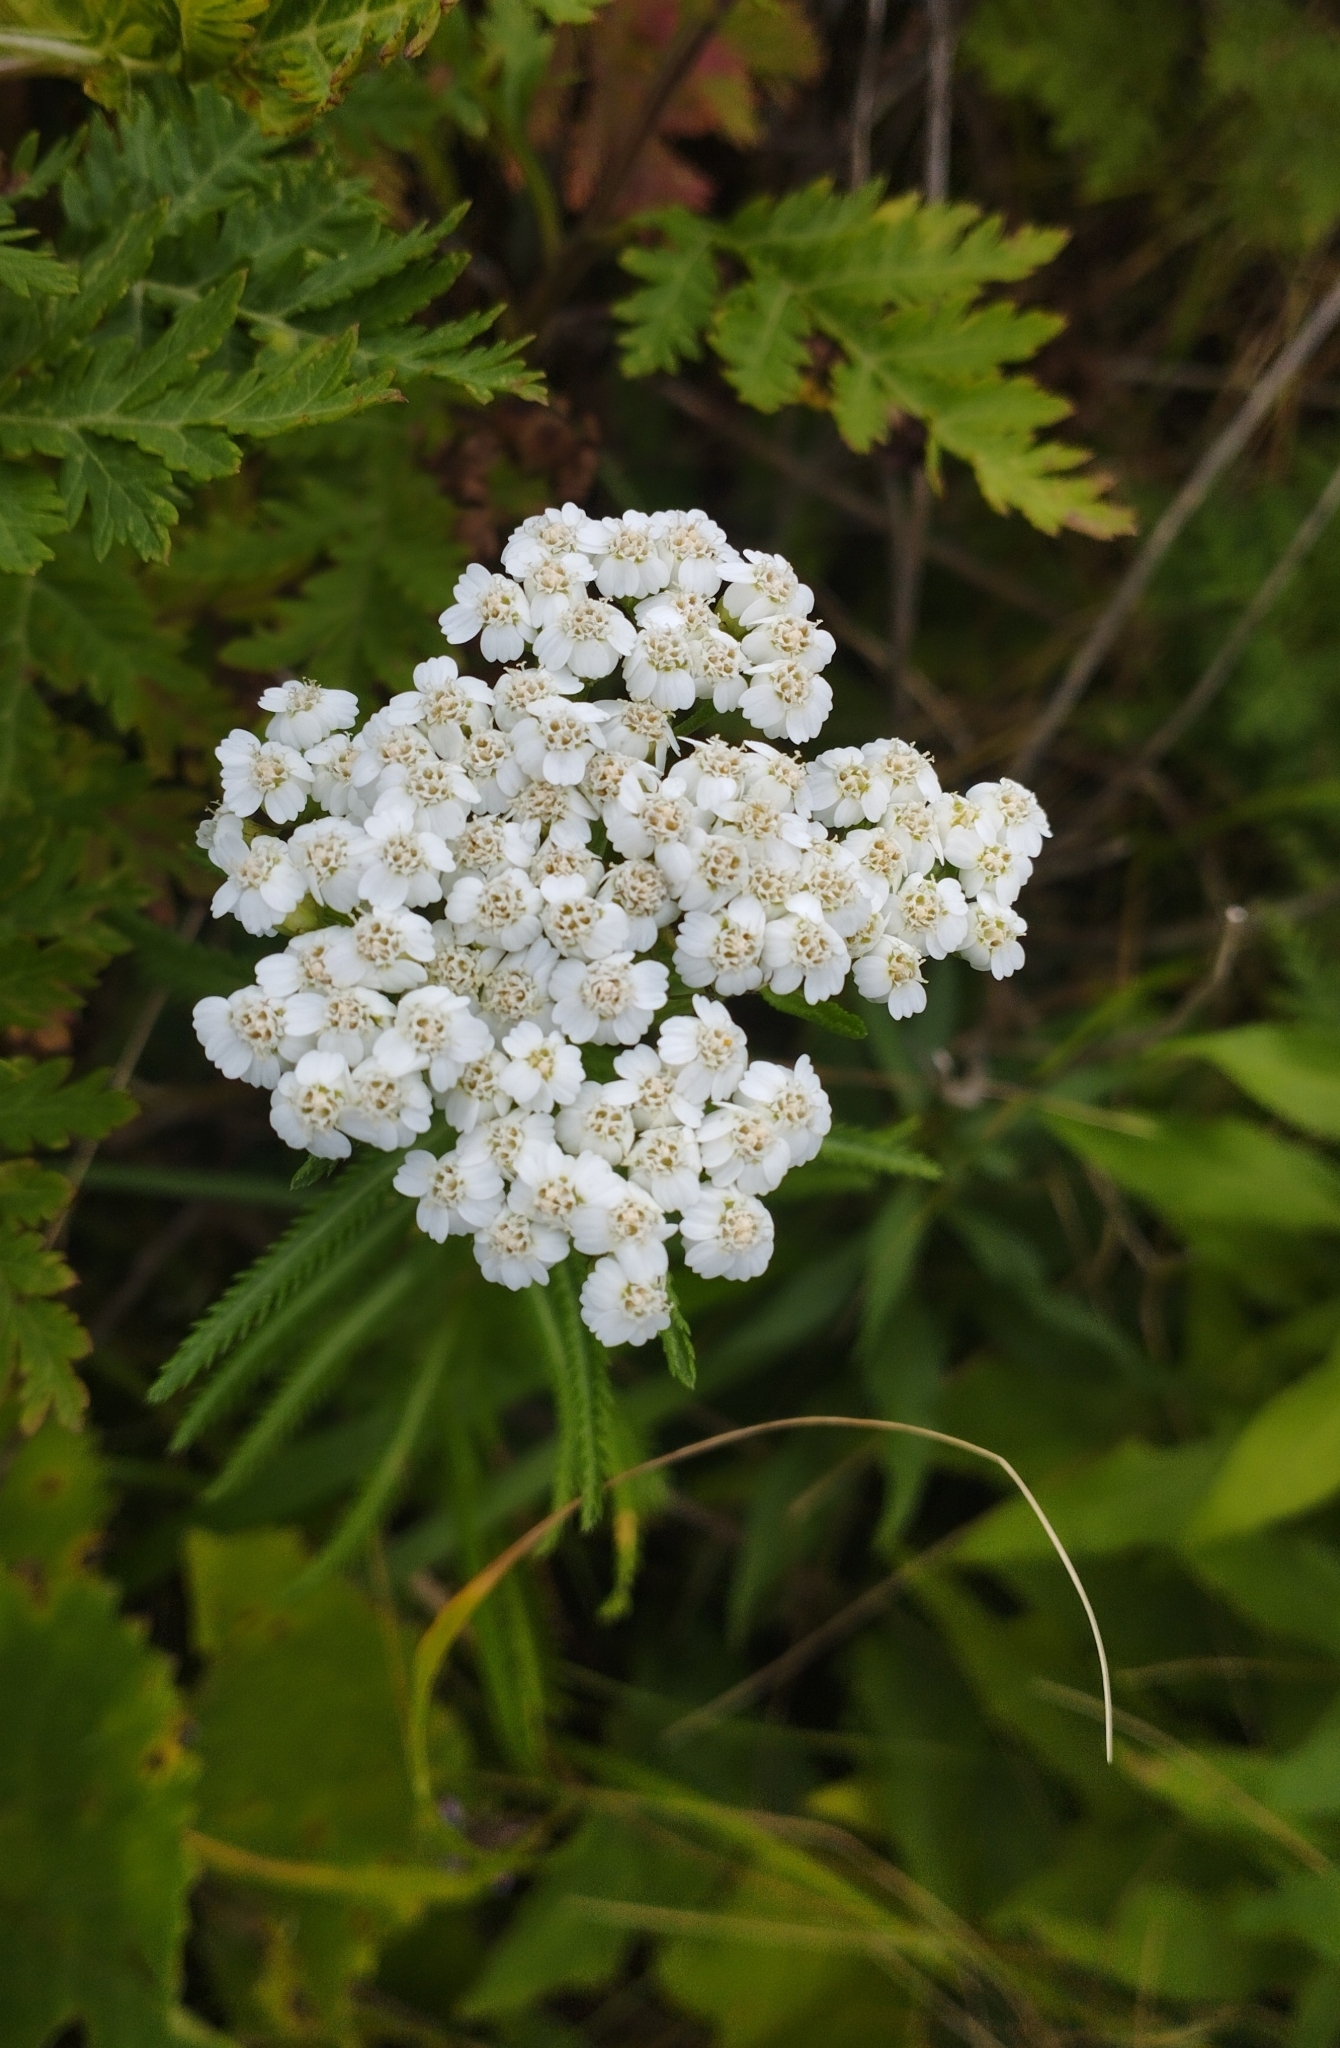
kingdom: Plantae
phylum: Tracheophyta
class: Magnoliopsida
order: Asterales
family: Asteraceae
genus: Achillea
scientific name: Achillea ptarmicoides
